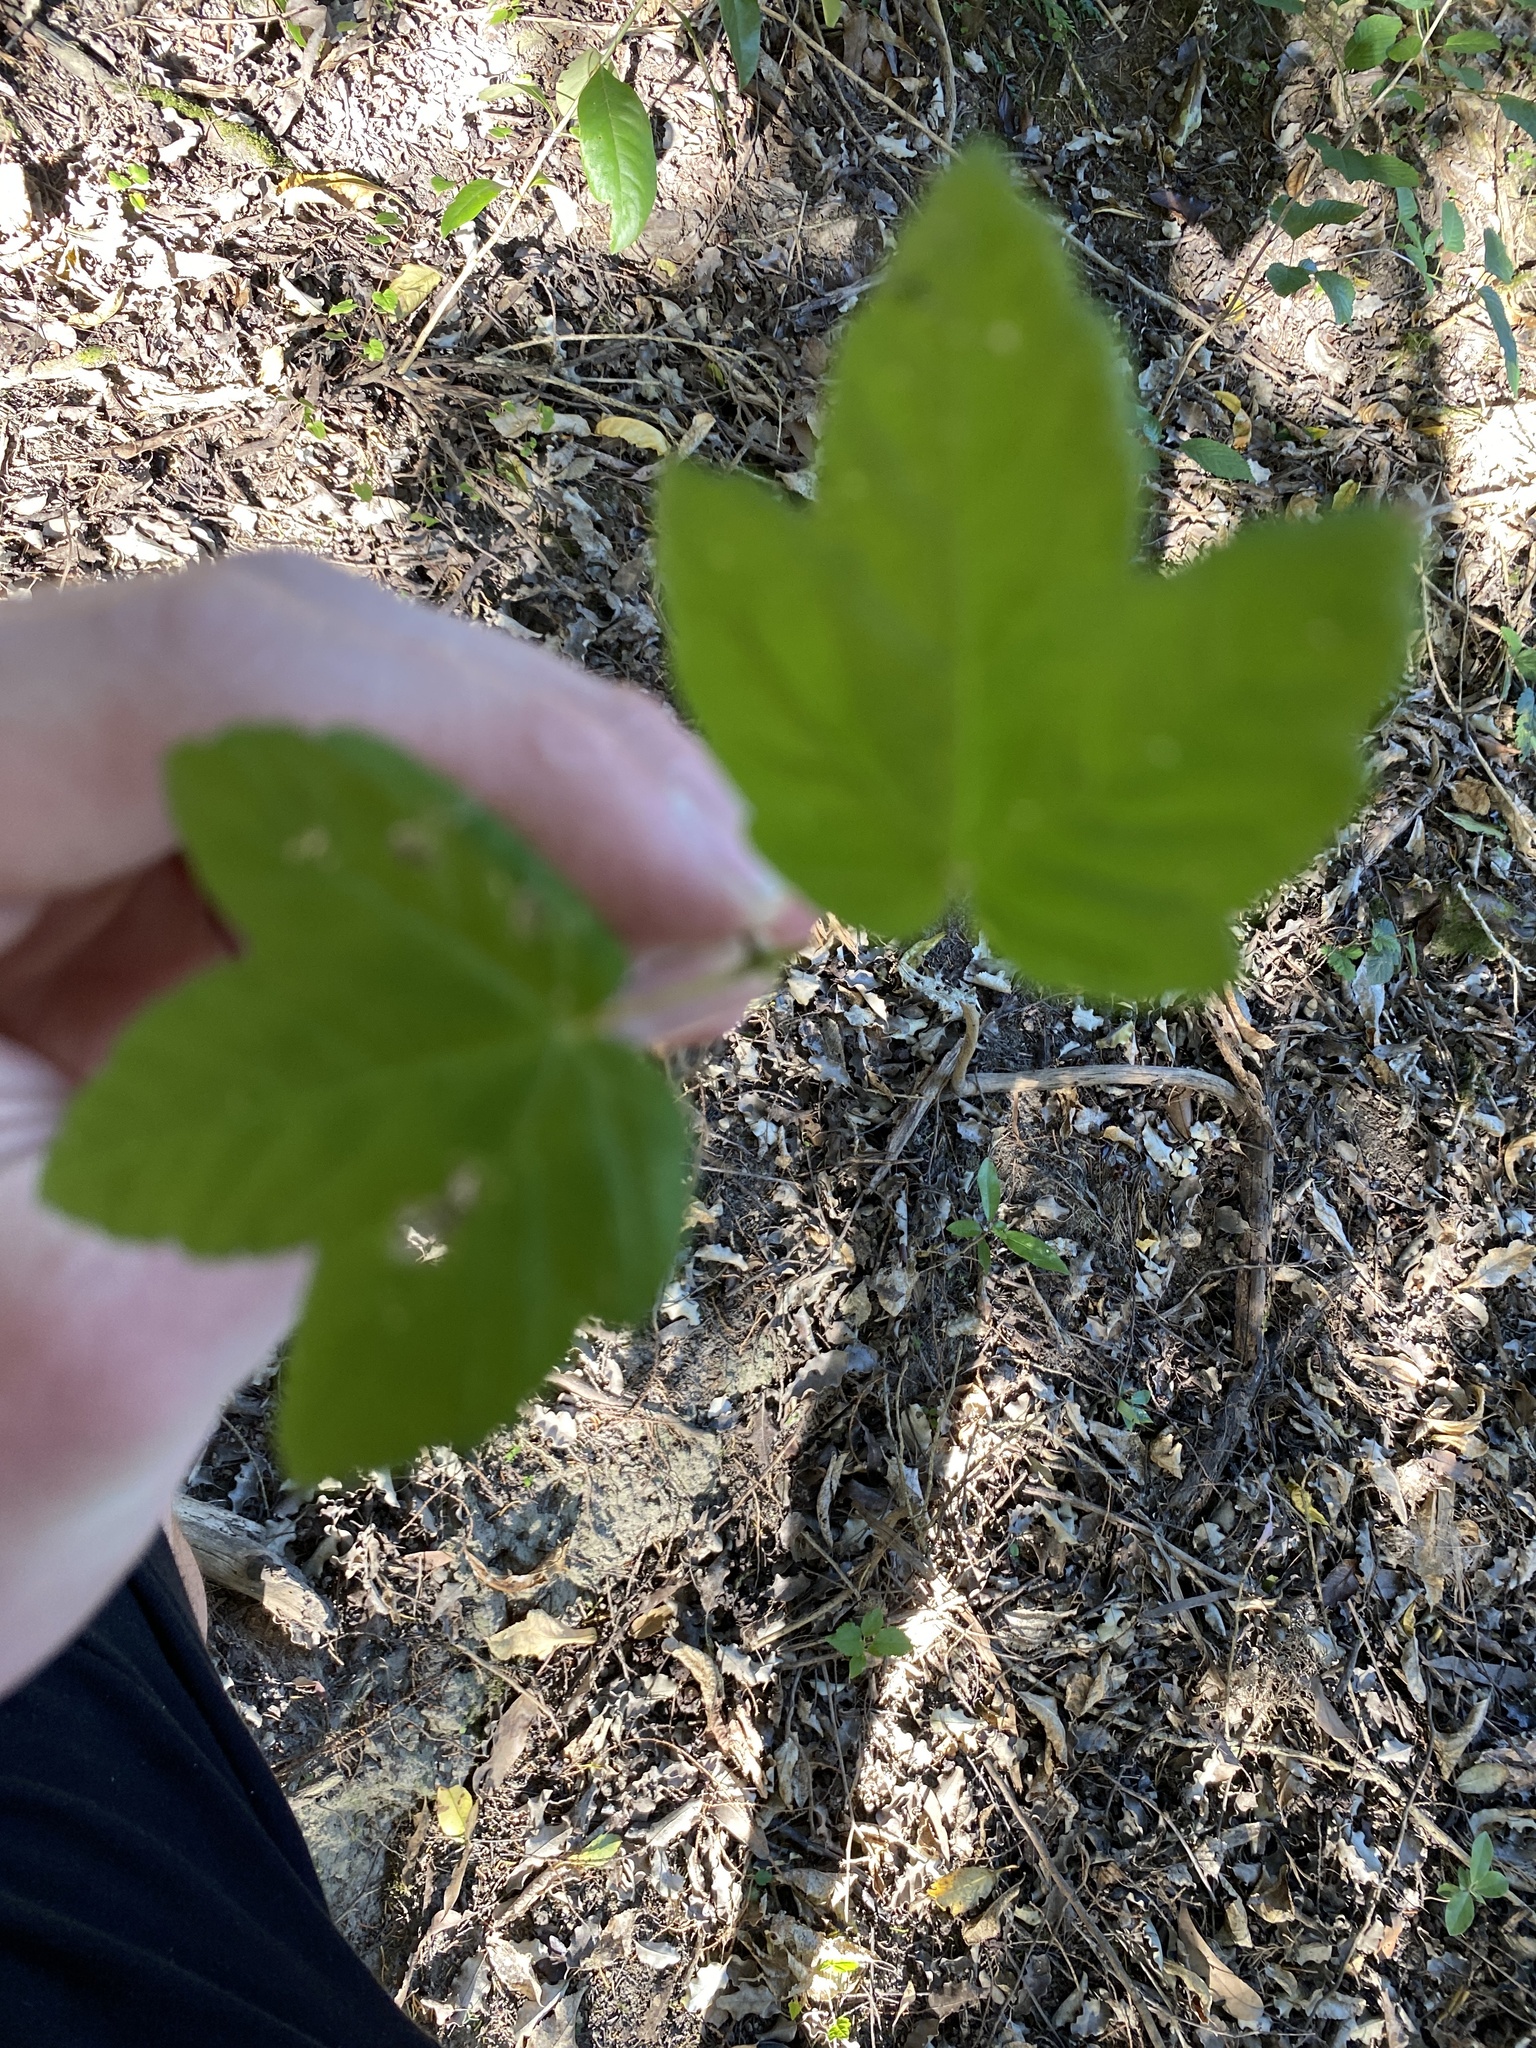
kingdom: Plantae
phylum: Tracheophyta
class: Magnoliopsida
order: Sapindales
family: Sapindaceae
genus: Acer
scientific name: Acer pseudoplatanus
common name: Sycamore
